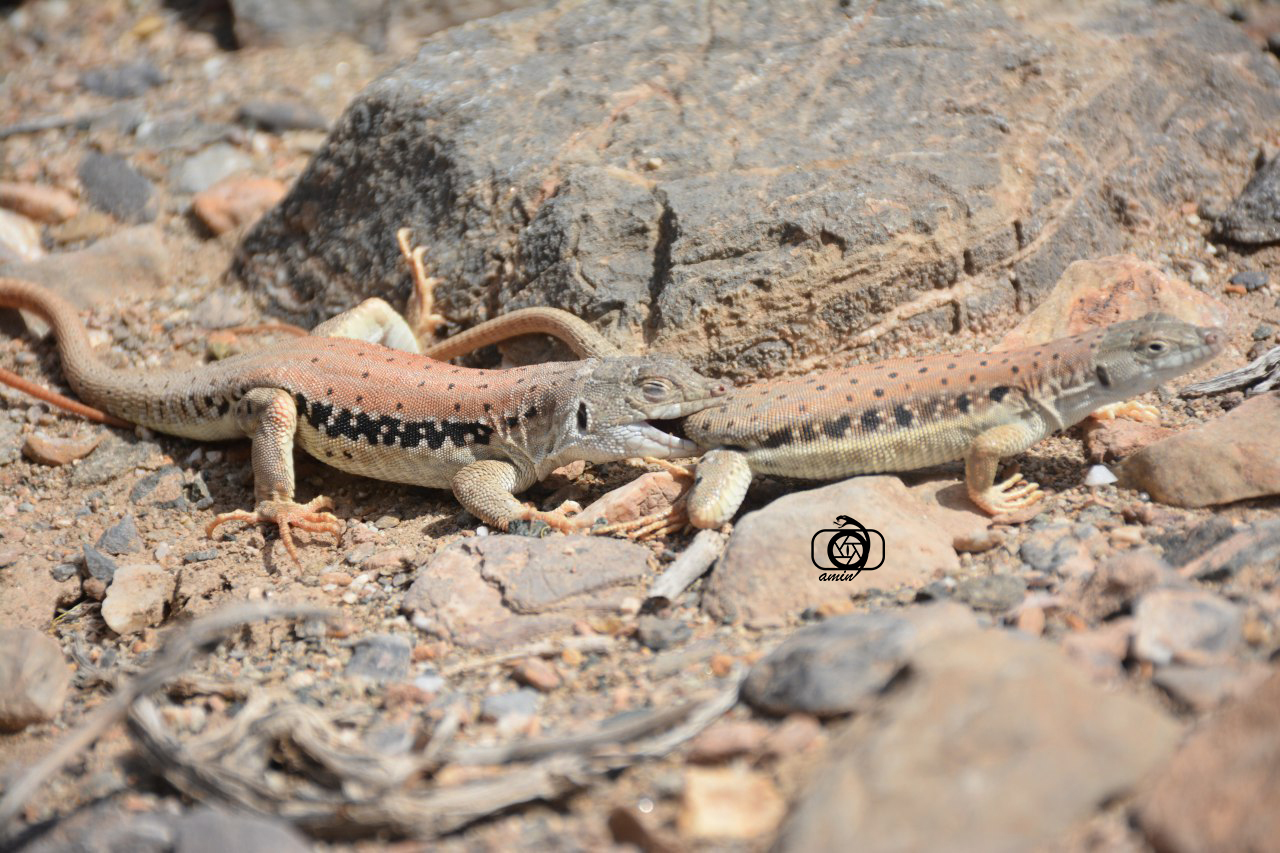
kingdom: Animalia
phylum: Chordata
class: Squamata
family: Lacertidae
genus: Eremias
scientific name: Eremias persica
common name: Aralo-caspian racerunner
